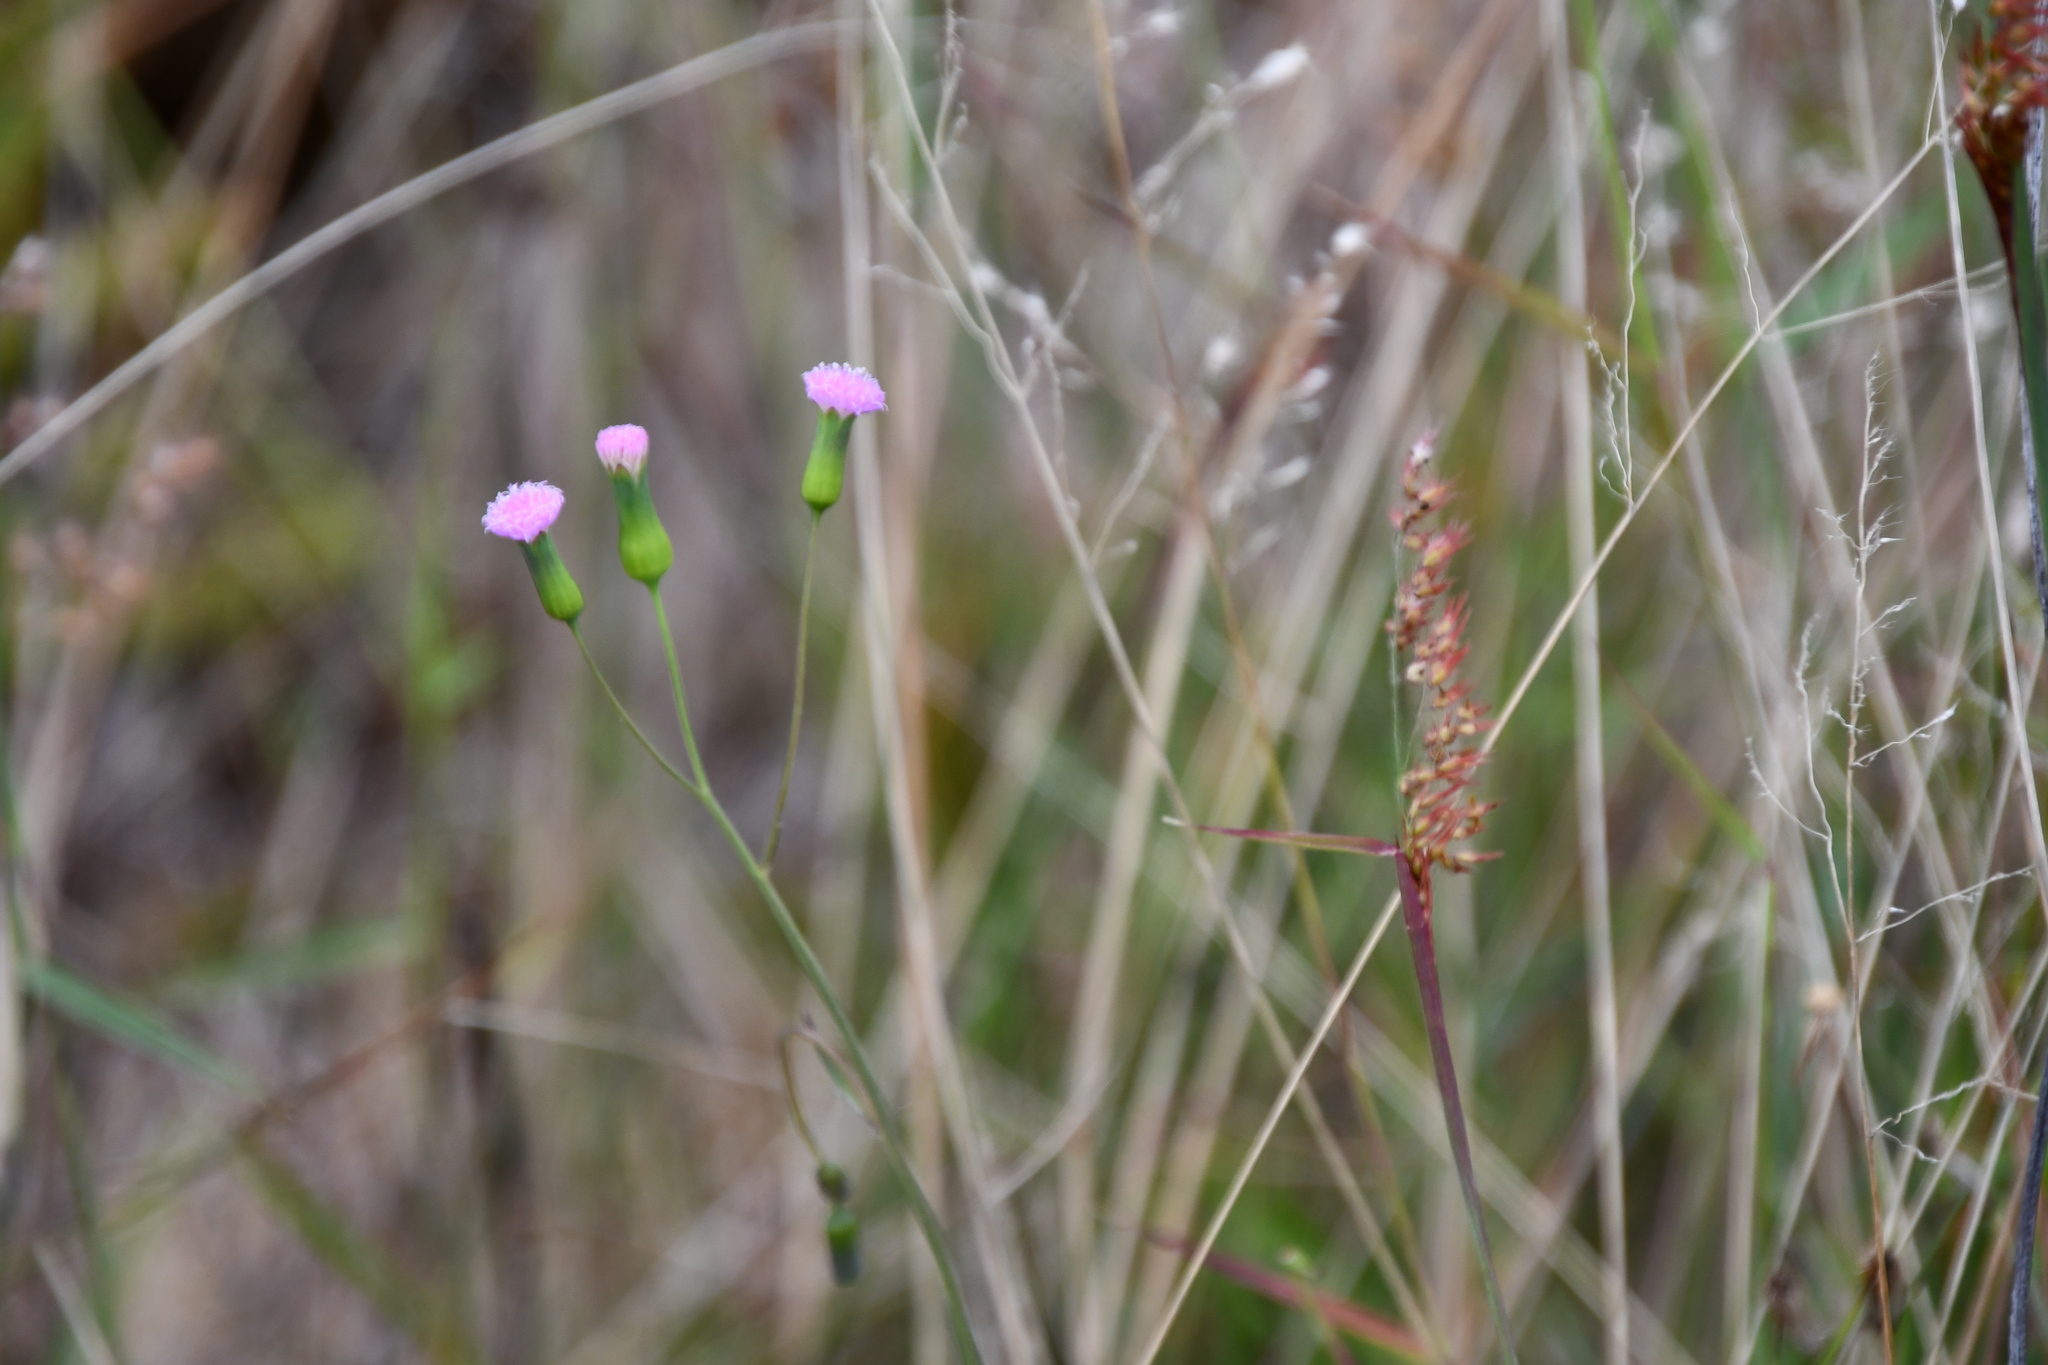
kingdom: Plantae
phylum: Tracheophyta
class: Magnoliopsida
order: Asterales
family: Asteraceae
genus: Emilia
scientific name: Emilia javanica
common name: Tassel-flower
